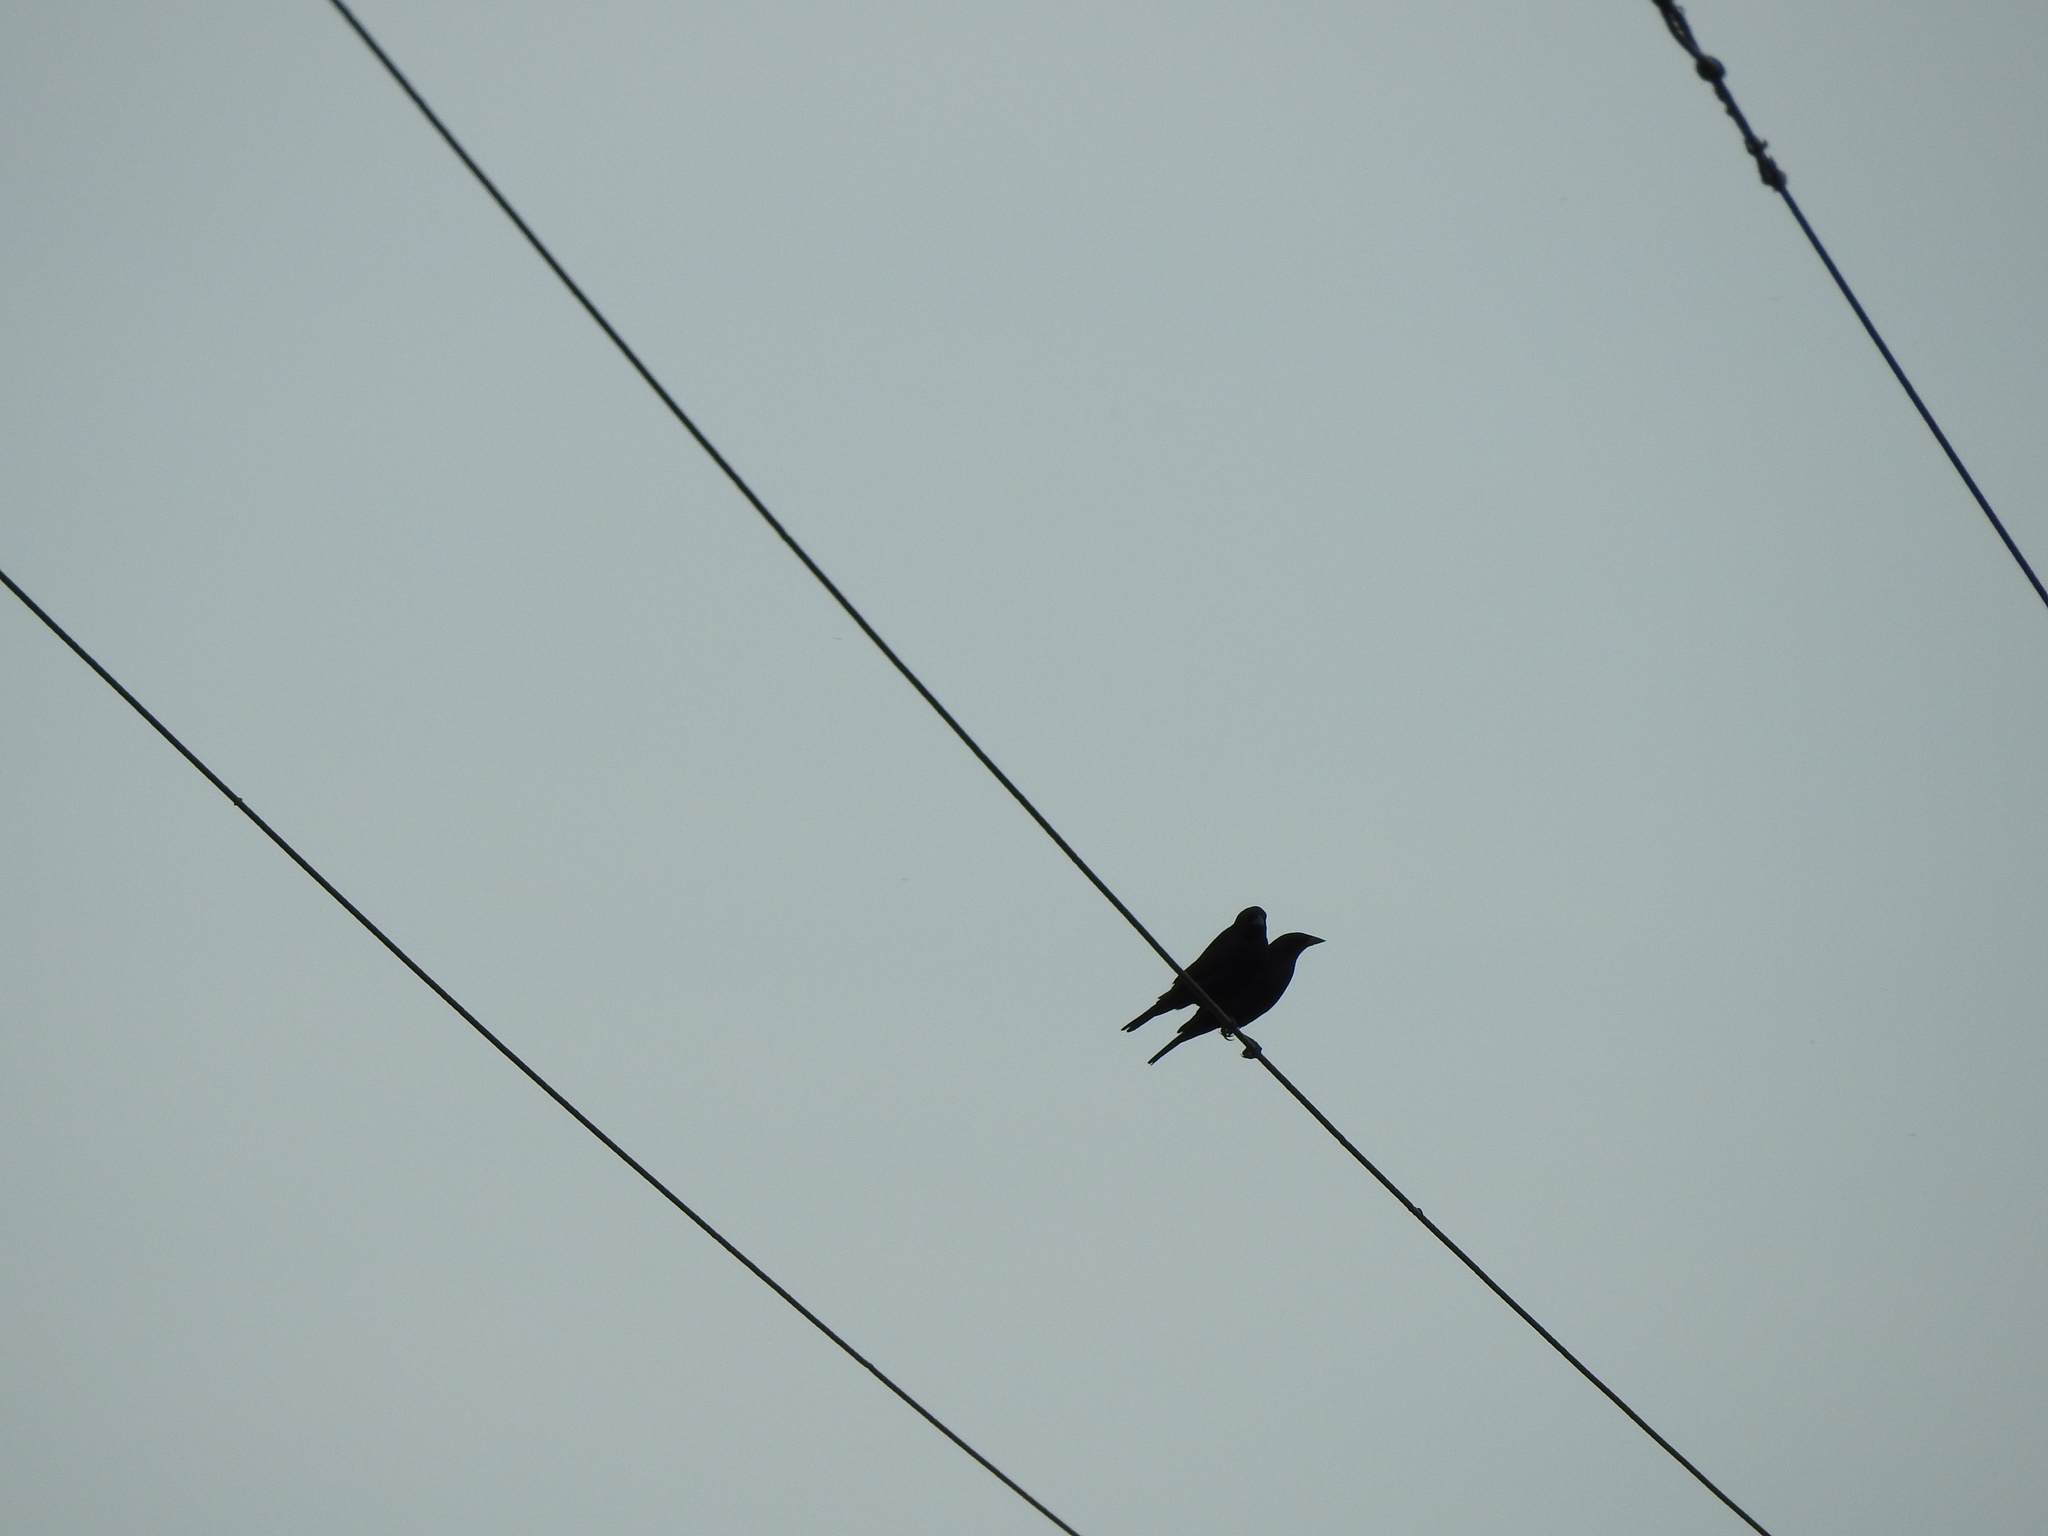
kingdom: Animalia
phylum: Chordata
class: Aves
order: Passeriformes
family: Icteridae
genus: Molothrus
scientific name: Molothrus bonariensis
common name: Shiny cowbird
